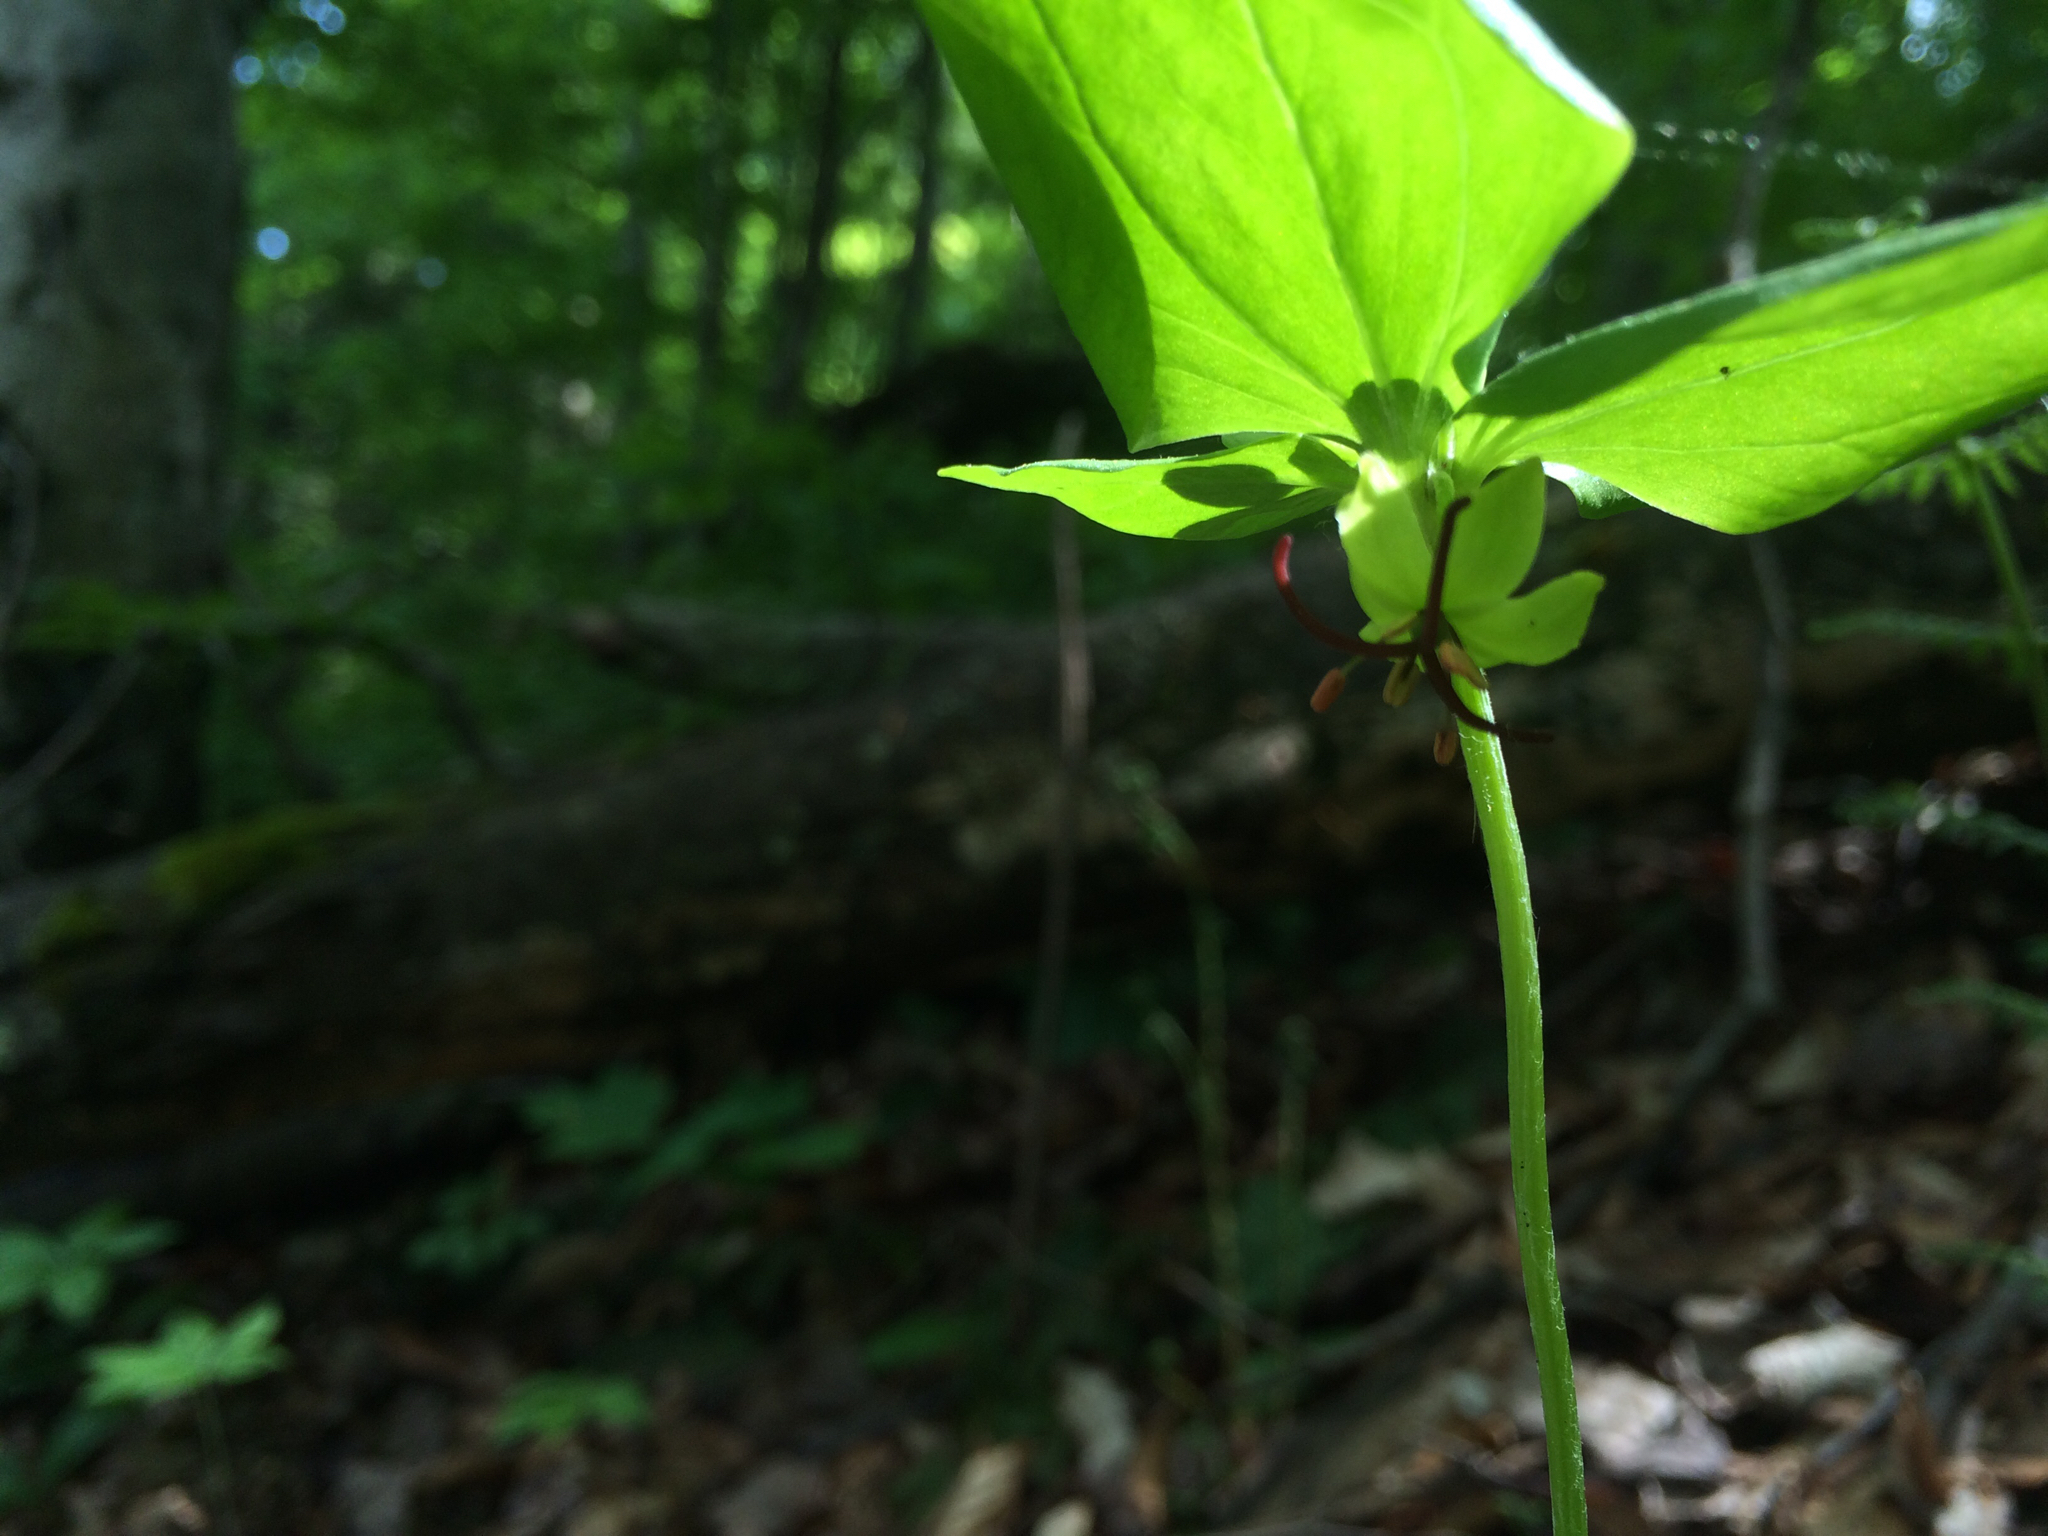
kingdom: Plantae
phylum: Tracheophyta
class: Liliopsida
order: Liliales
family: Liliaceae
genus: Medeola
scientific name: Medeola virginiana
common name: Indian cucumber-root
